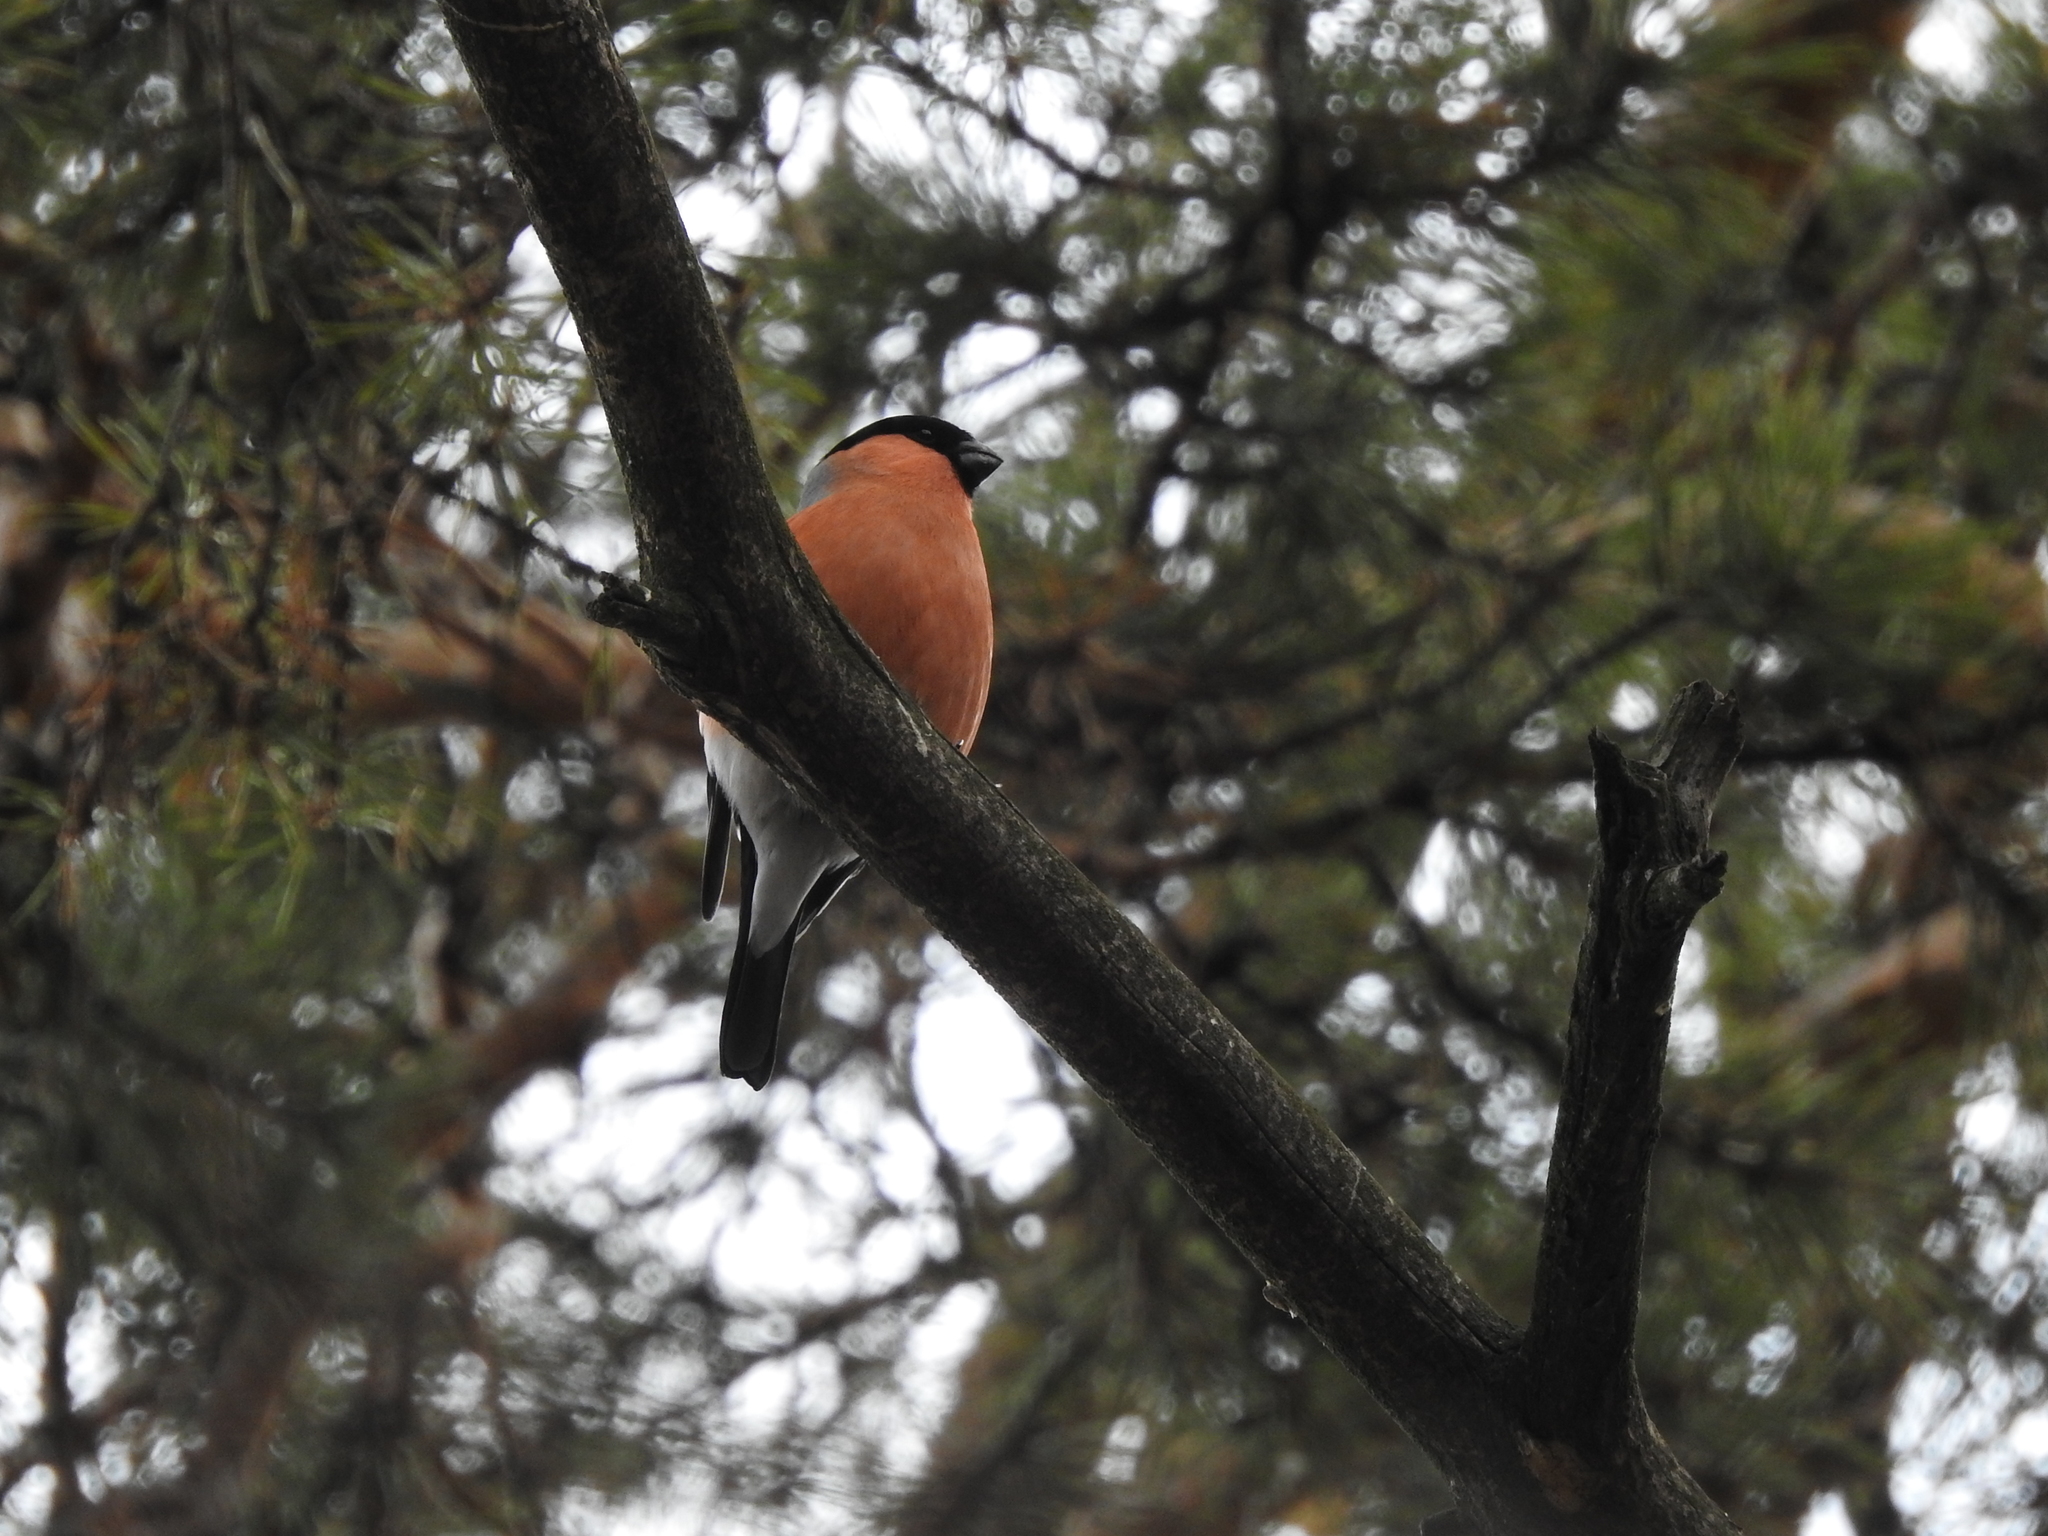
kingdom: Animalia
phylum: Chordata
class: Aves
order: Passeriformes
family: Fringillidae
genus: Pyrrhula
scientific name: Pyrrhula pyrrhula
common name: Eurasian bullfinch
